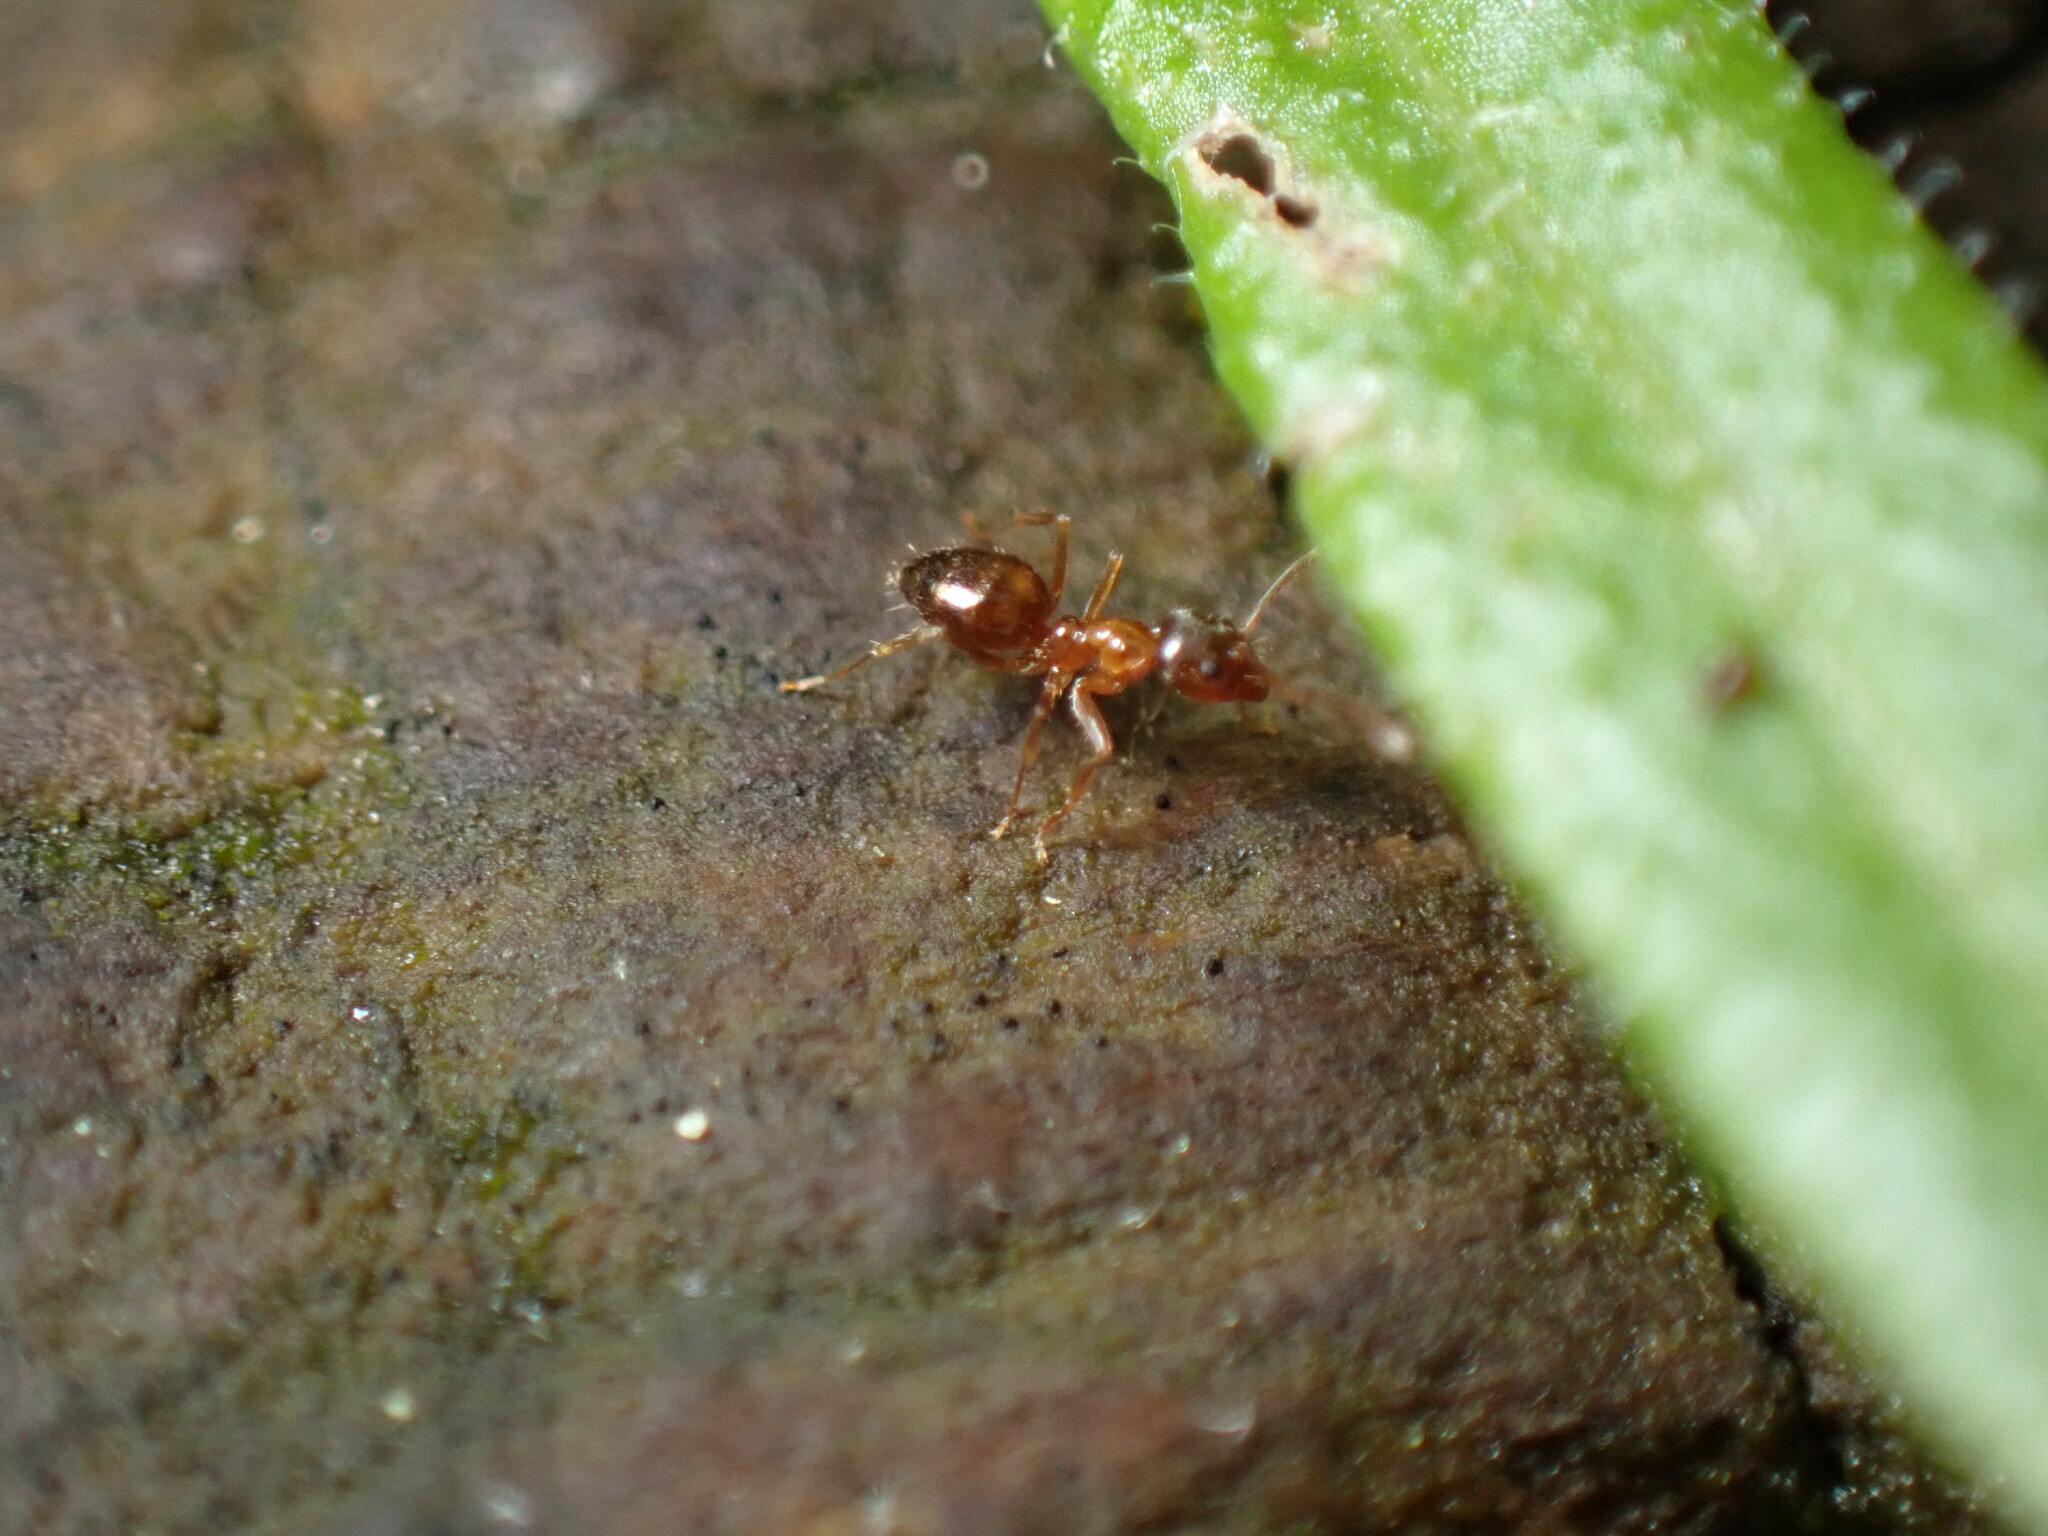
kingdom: Animalia
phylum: Arthropoda
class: Insecta
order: Hymenoptera
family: Formicidae
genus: Paratrechina
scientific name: Paratrechina flavipes
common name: Eastern asian formicine ant
